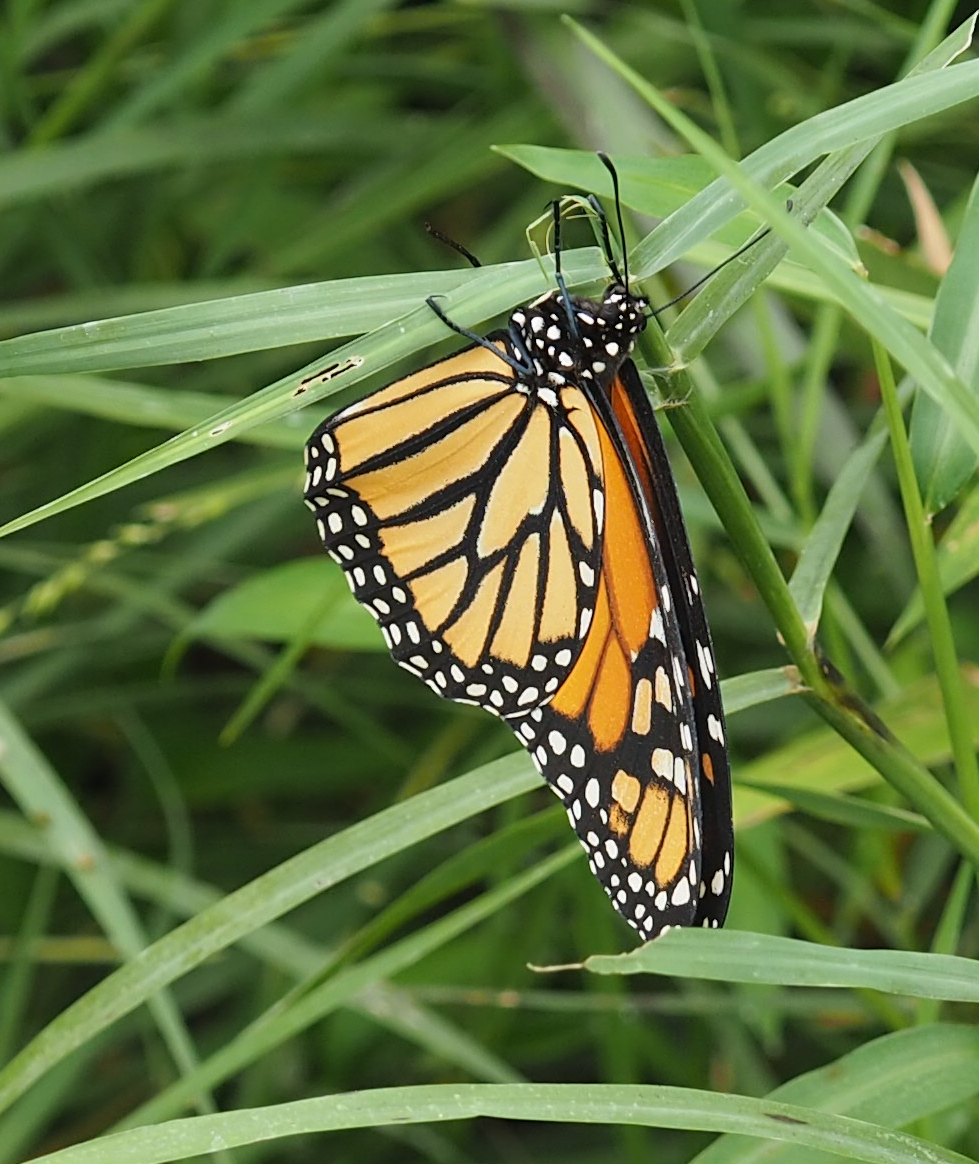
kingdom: Animalia
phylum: Arthropoda
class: Insecta
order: Lepidoptera
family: Nymphalidae
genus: Danaus
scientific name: Danaus plexippus
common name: Monarch
